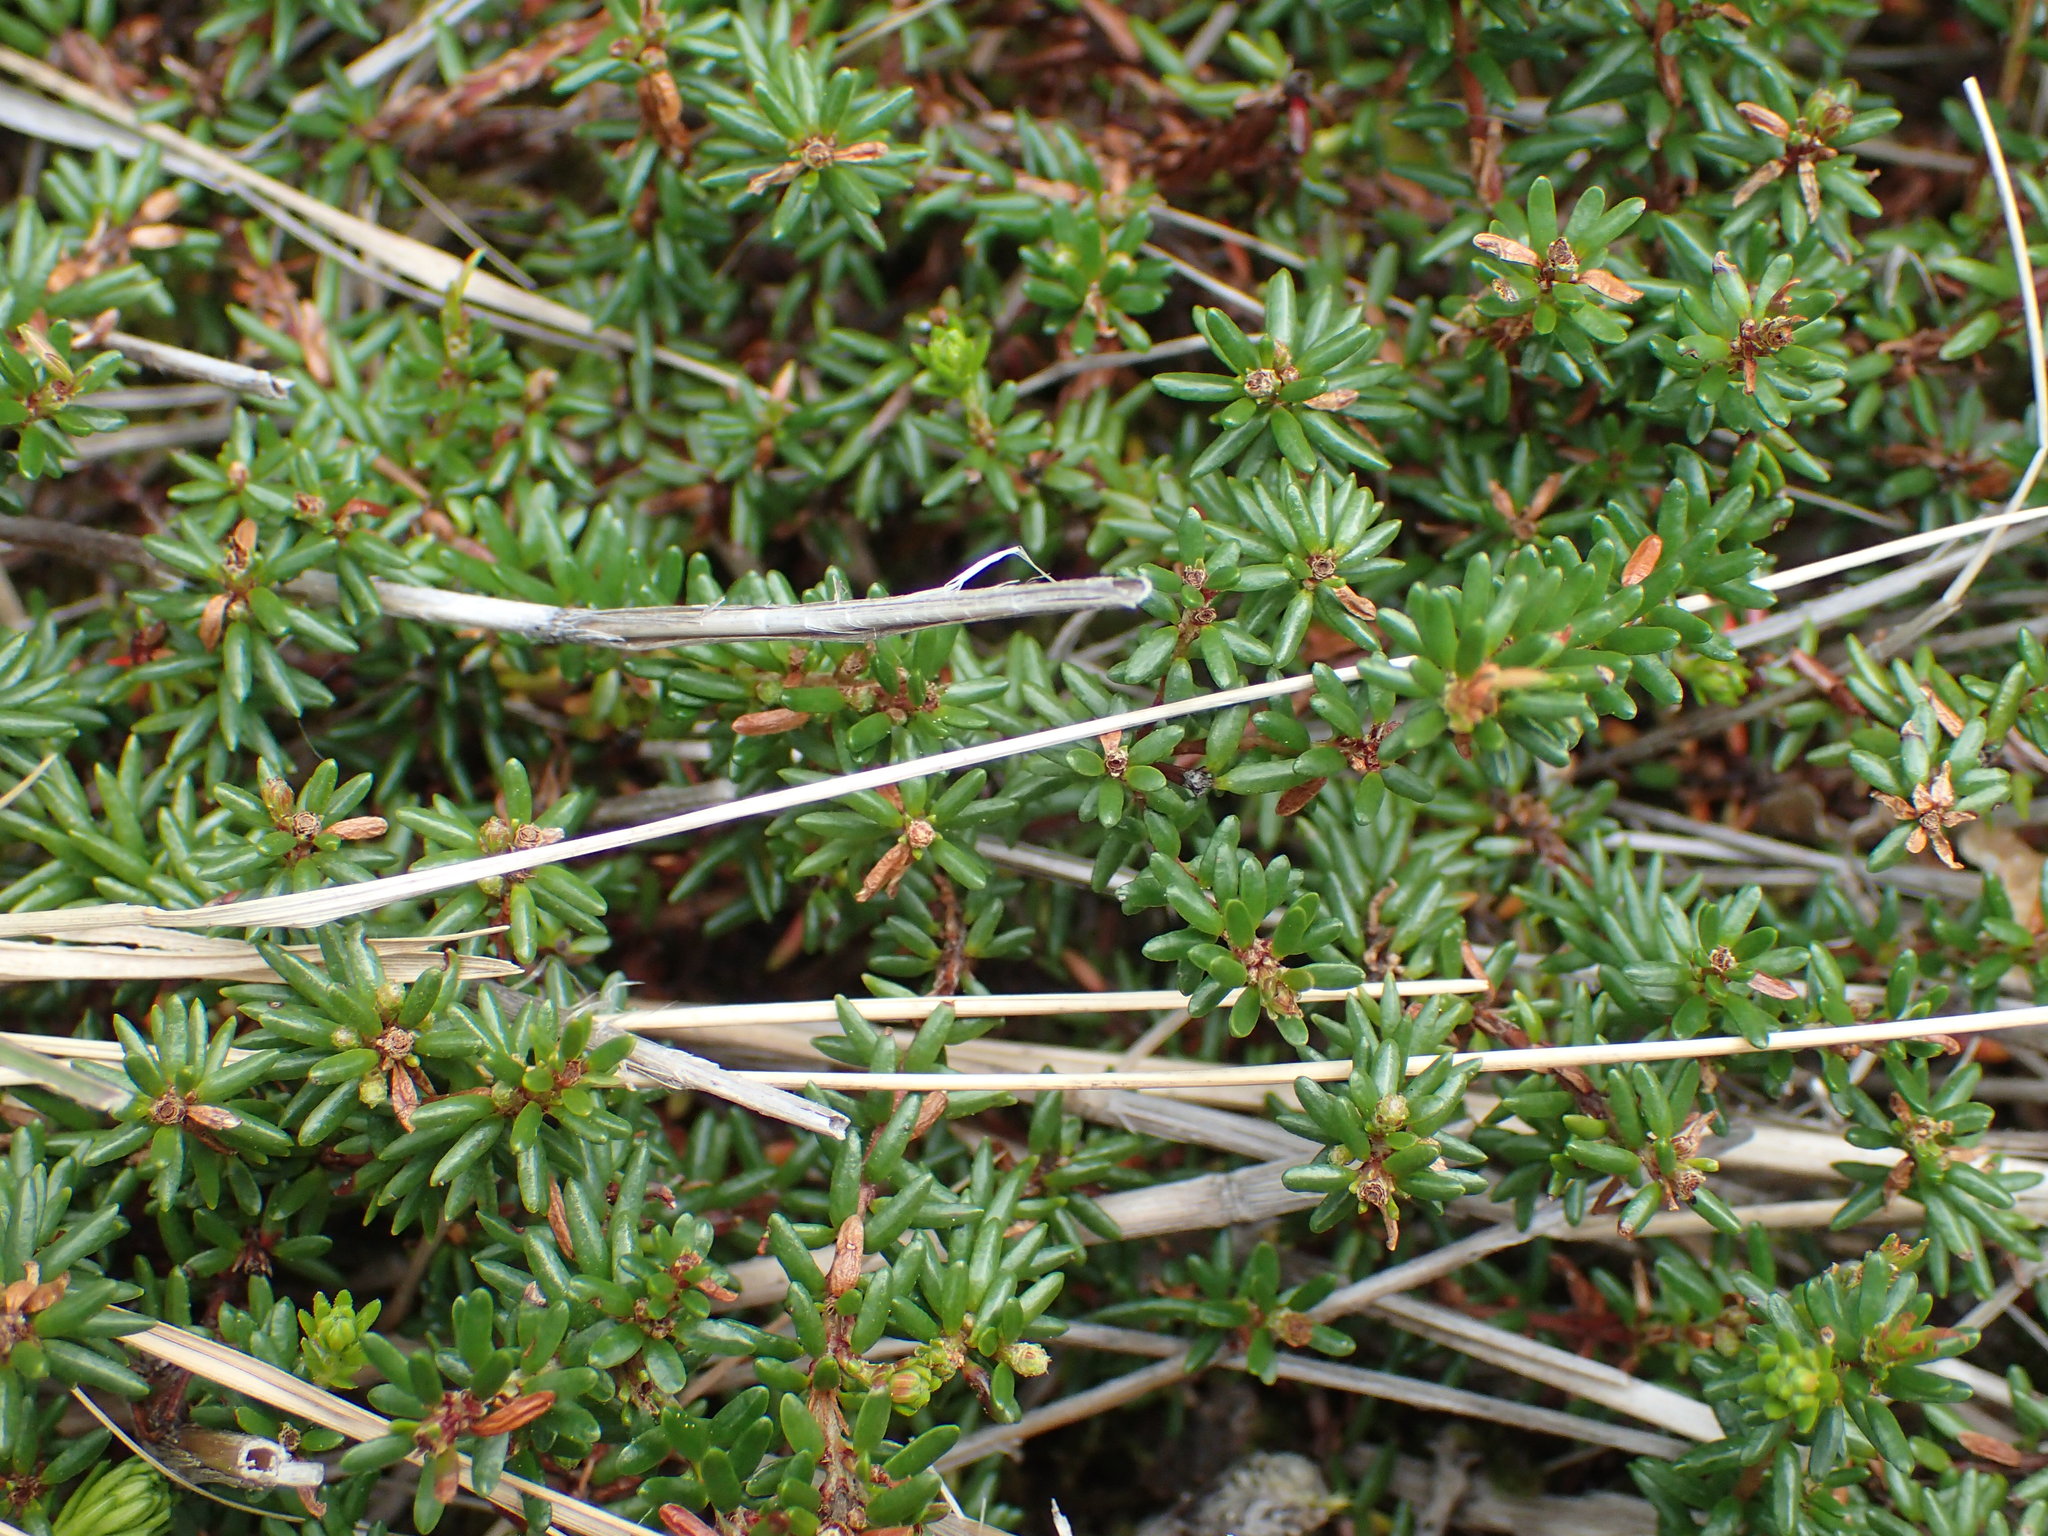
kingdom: Plantae
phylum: Tracheophyta
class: Magnoliopsida
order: Ericales
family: Ericaceae
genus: Empetrum
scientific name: Empetrum nigrum
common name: Black crowberry
